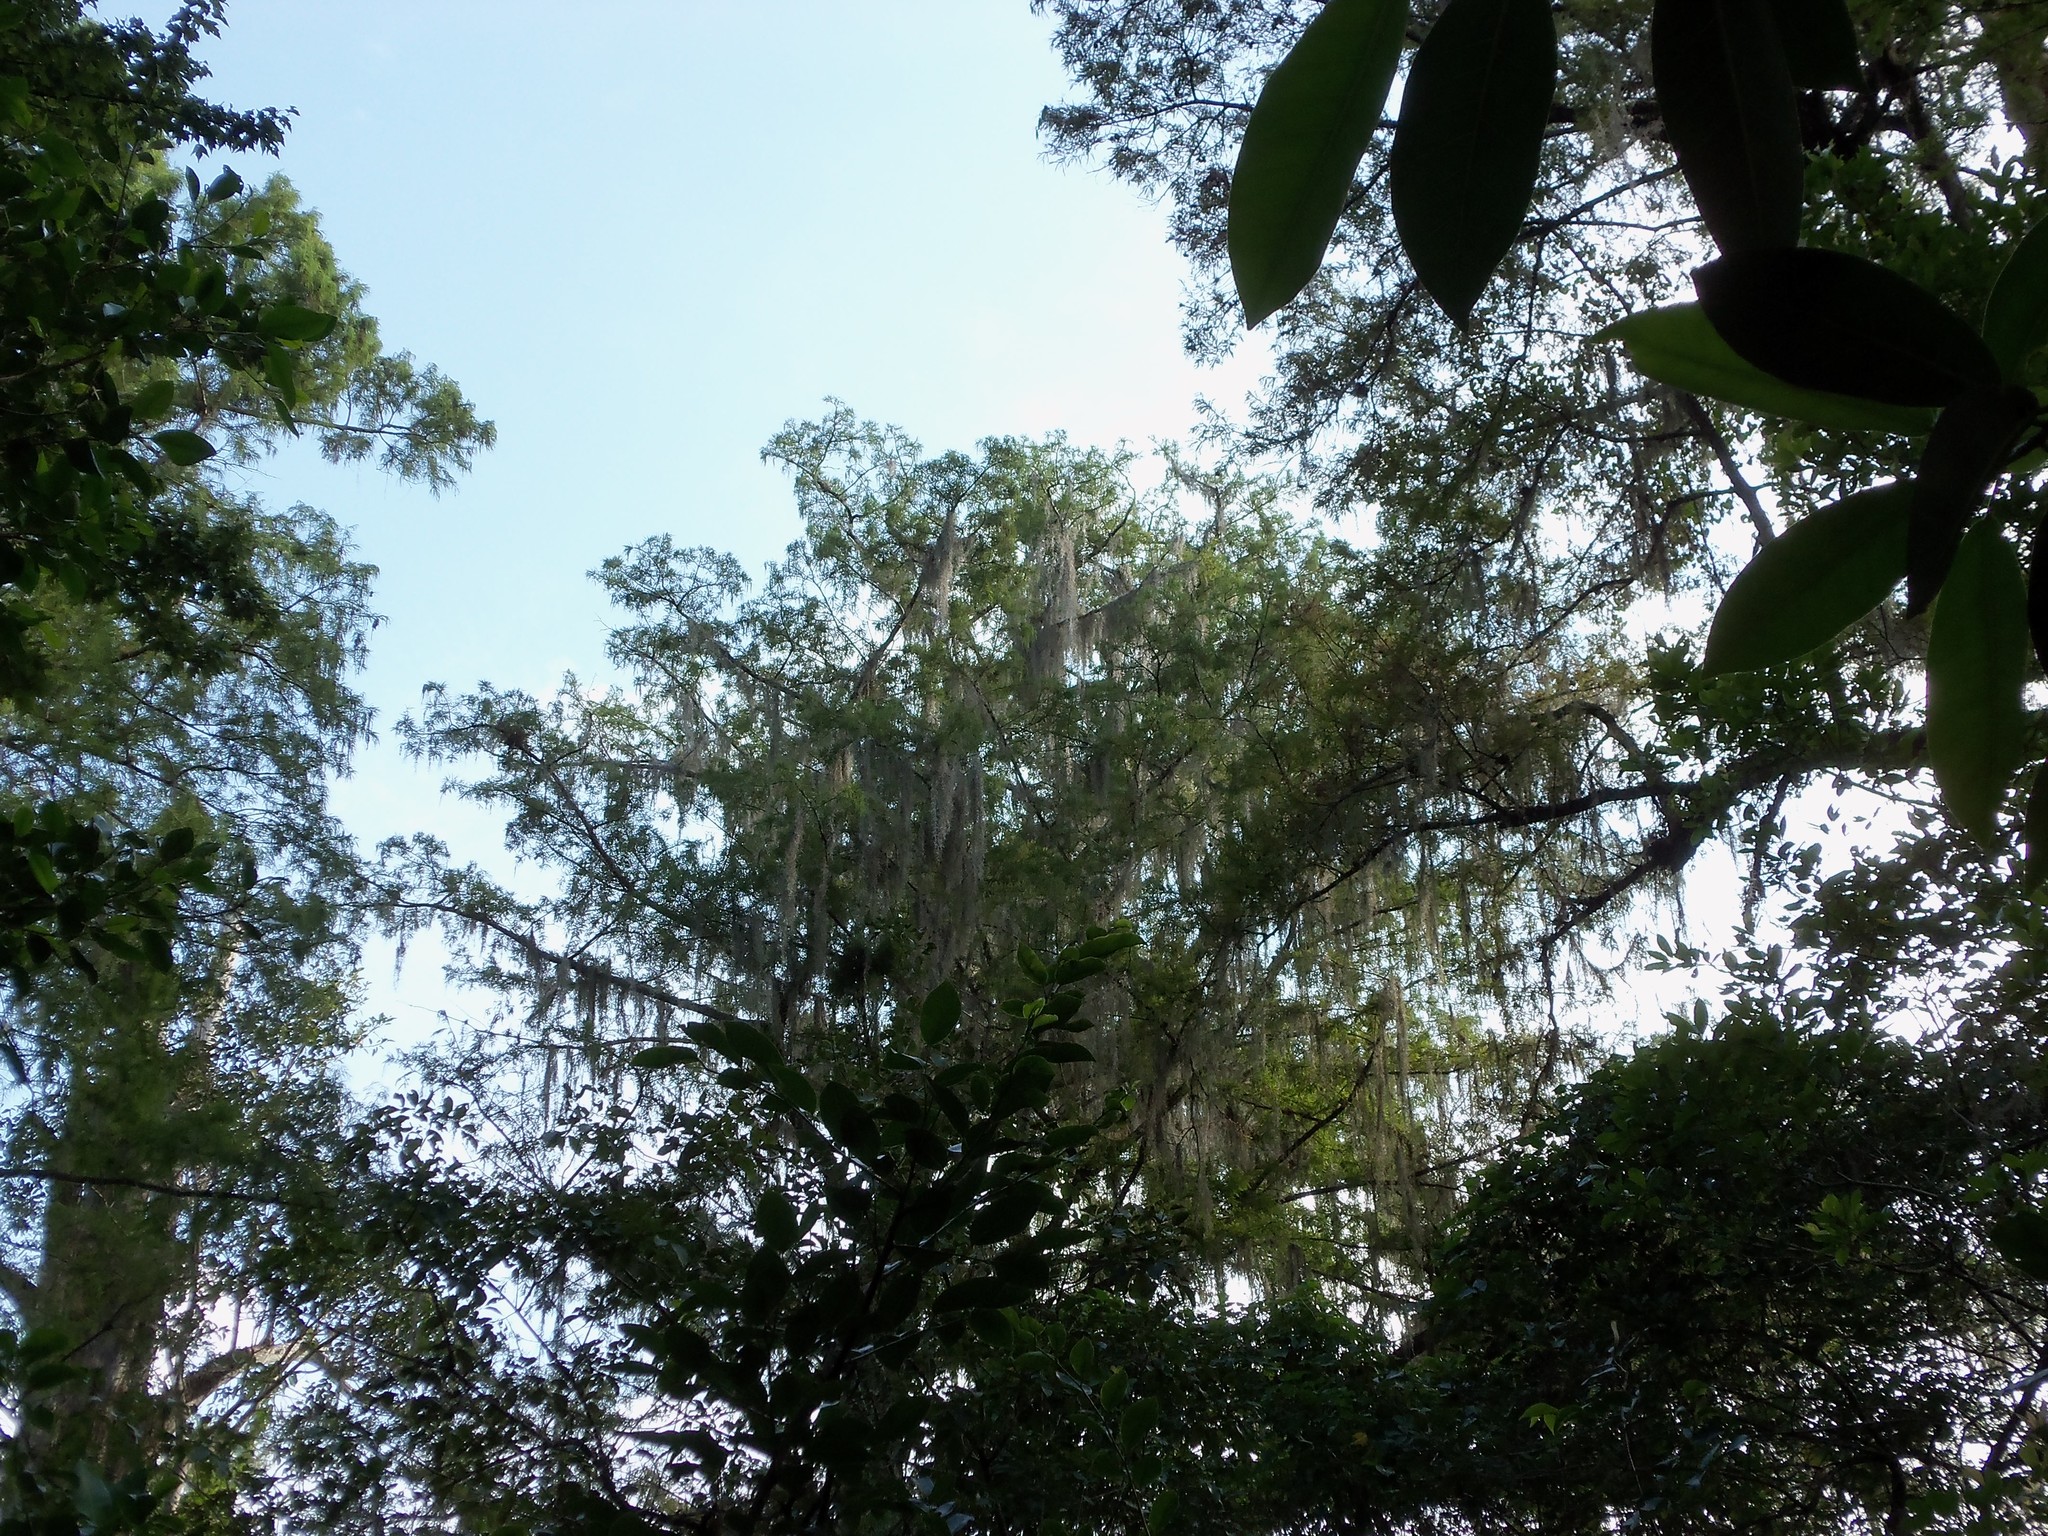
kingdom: Plantae
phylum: Tracheophyta
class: Liliopsida
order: Poales
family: Bromeliaceae
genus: Tillandsia
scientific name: Tillandsia usneoides
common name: Spanish moss
